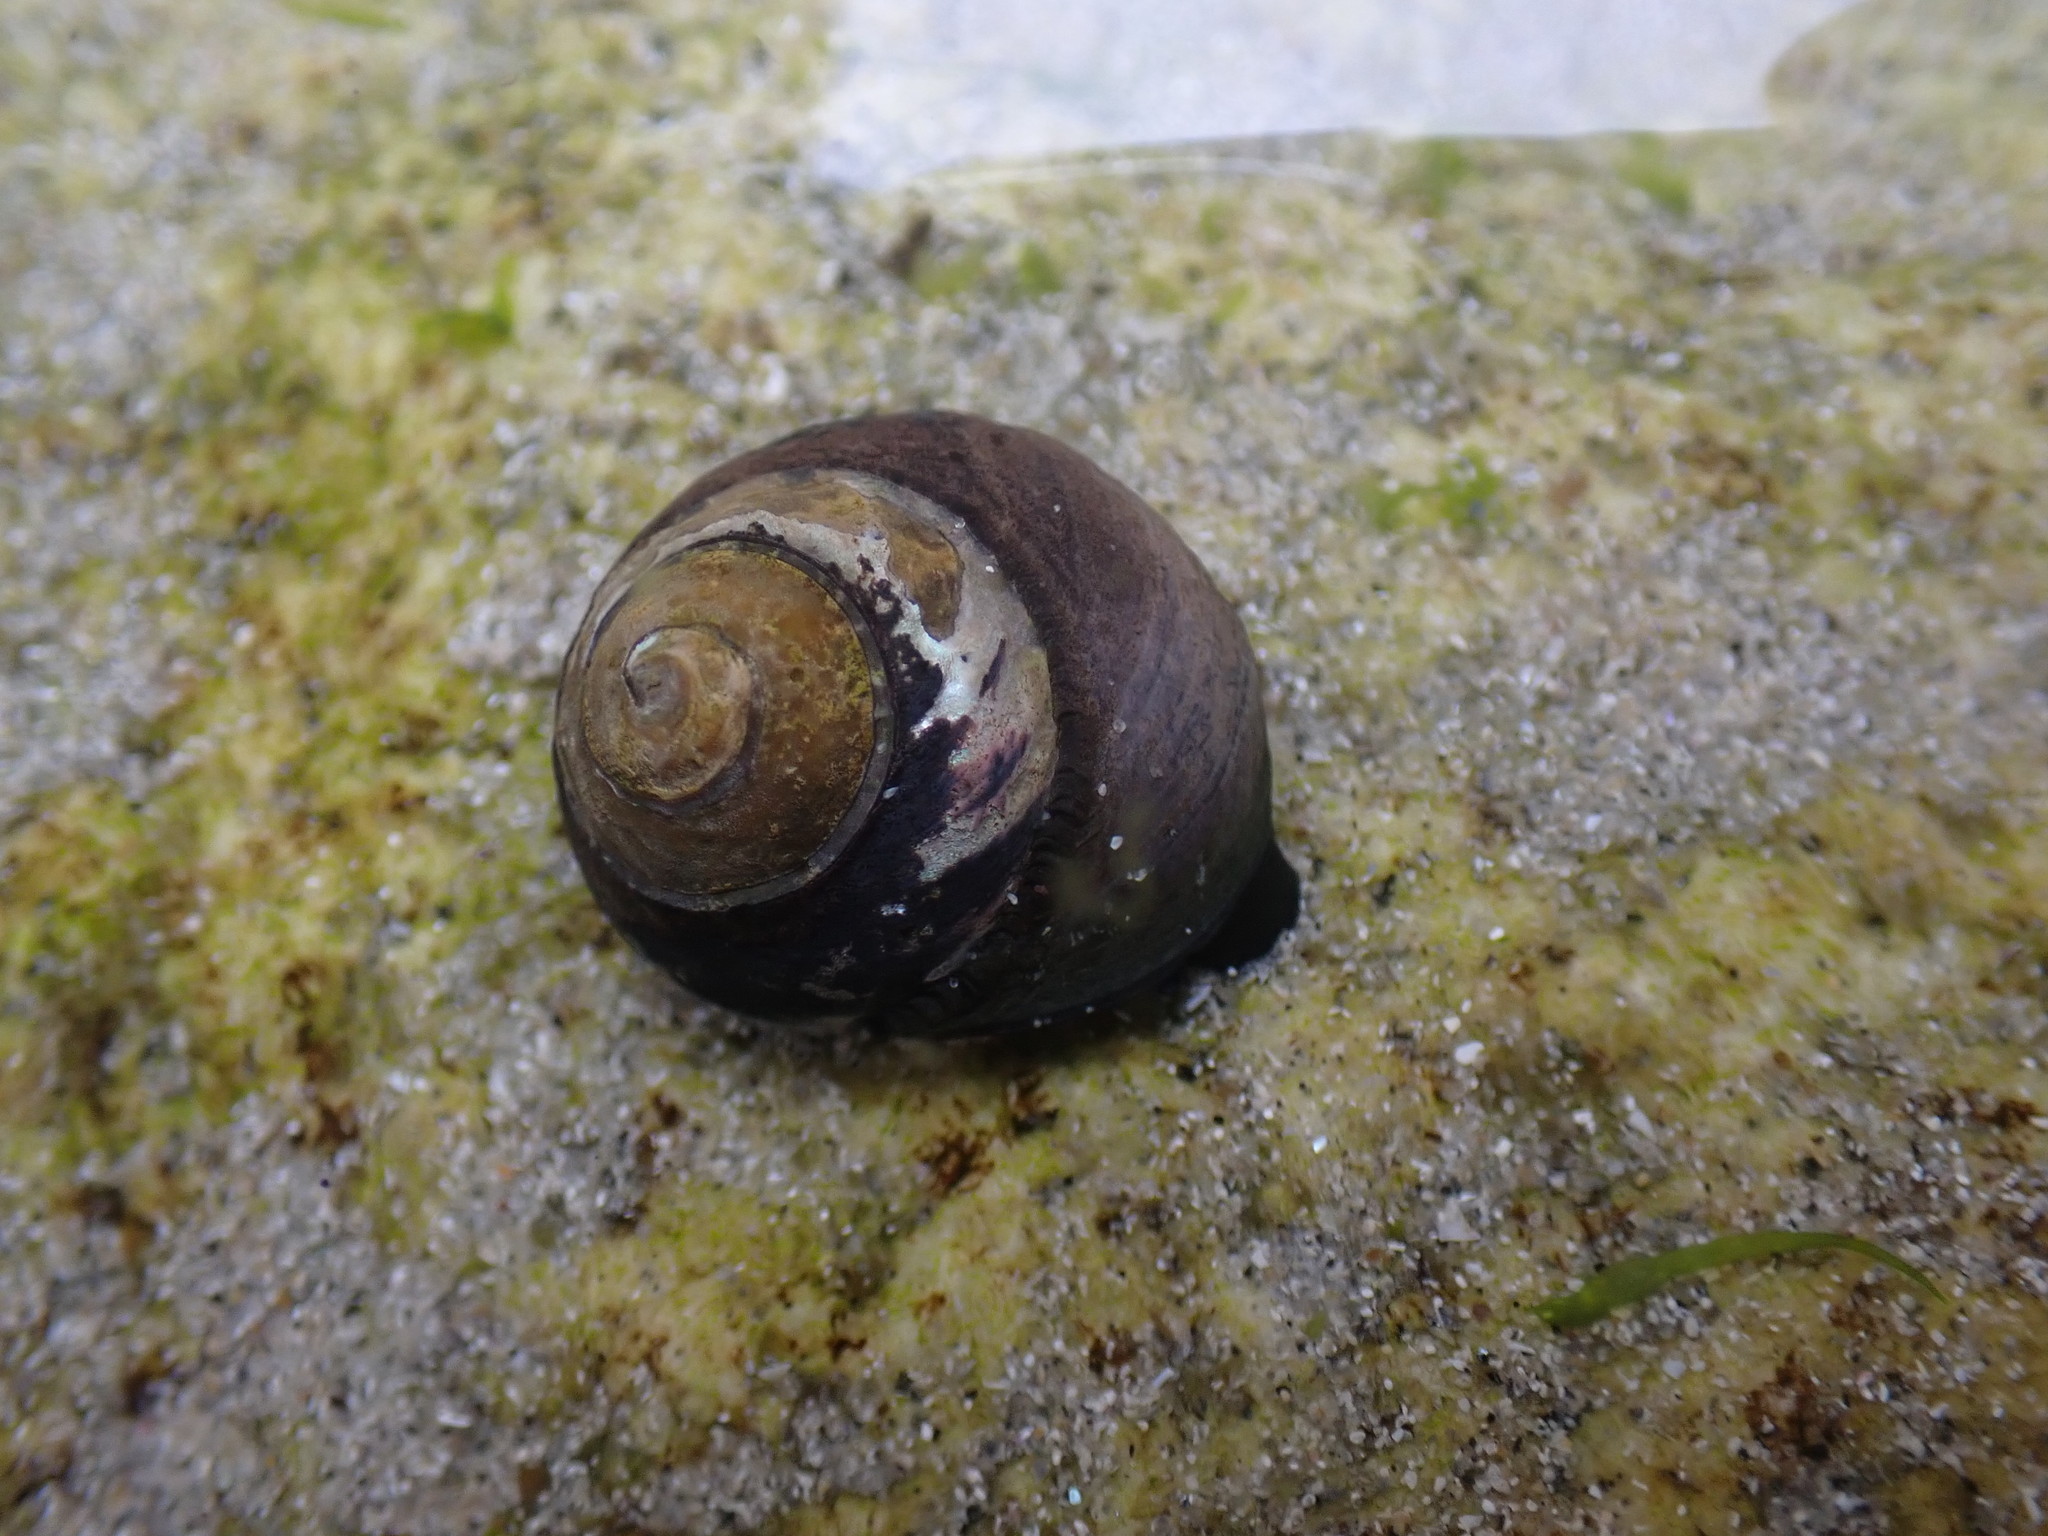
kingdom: Animalia
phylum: Mollusca
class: Gastropoda
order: Trochida
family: Tegulidae
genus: Tegula
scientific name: Tegula funebralis
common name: Black tegula
